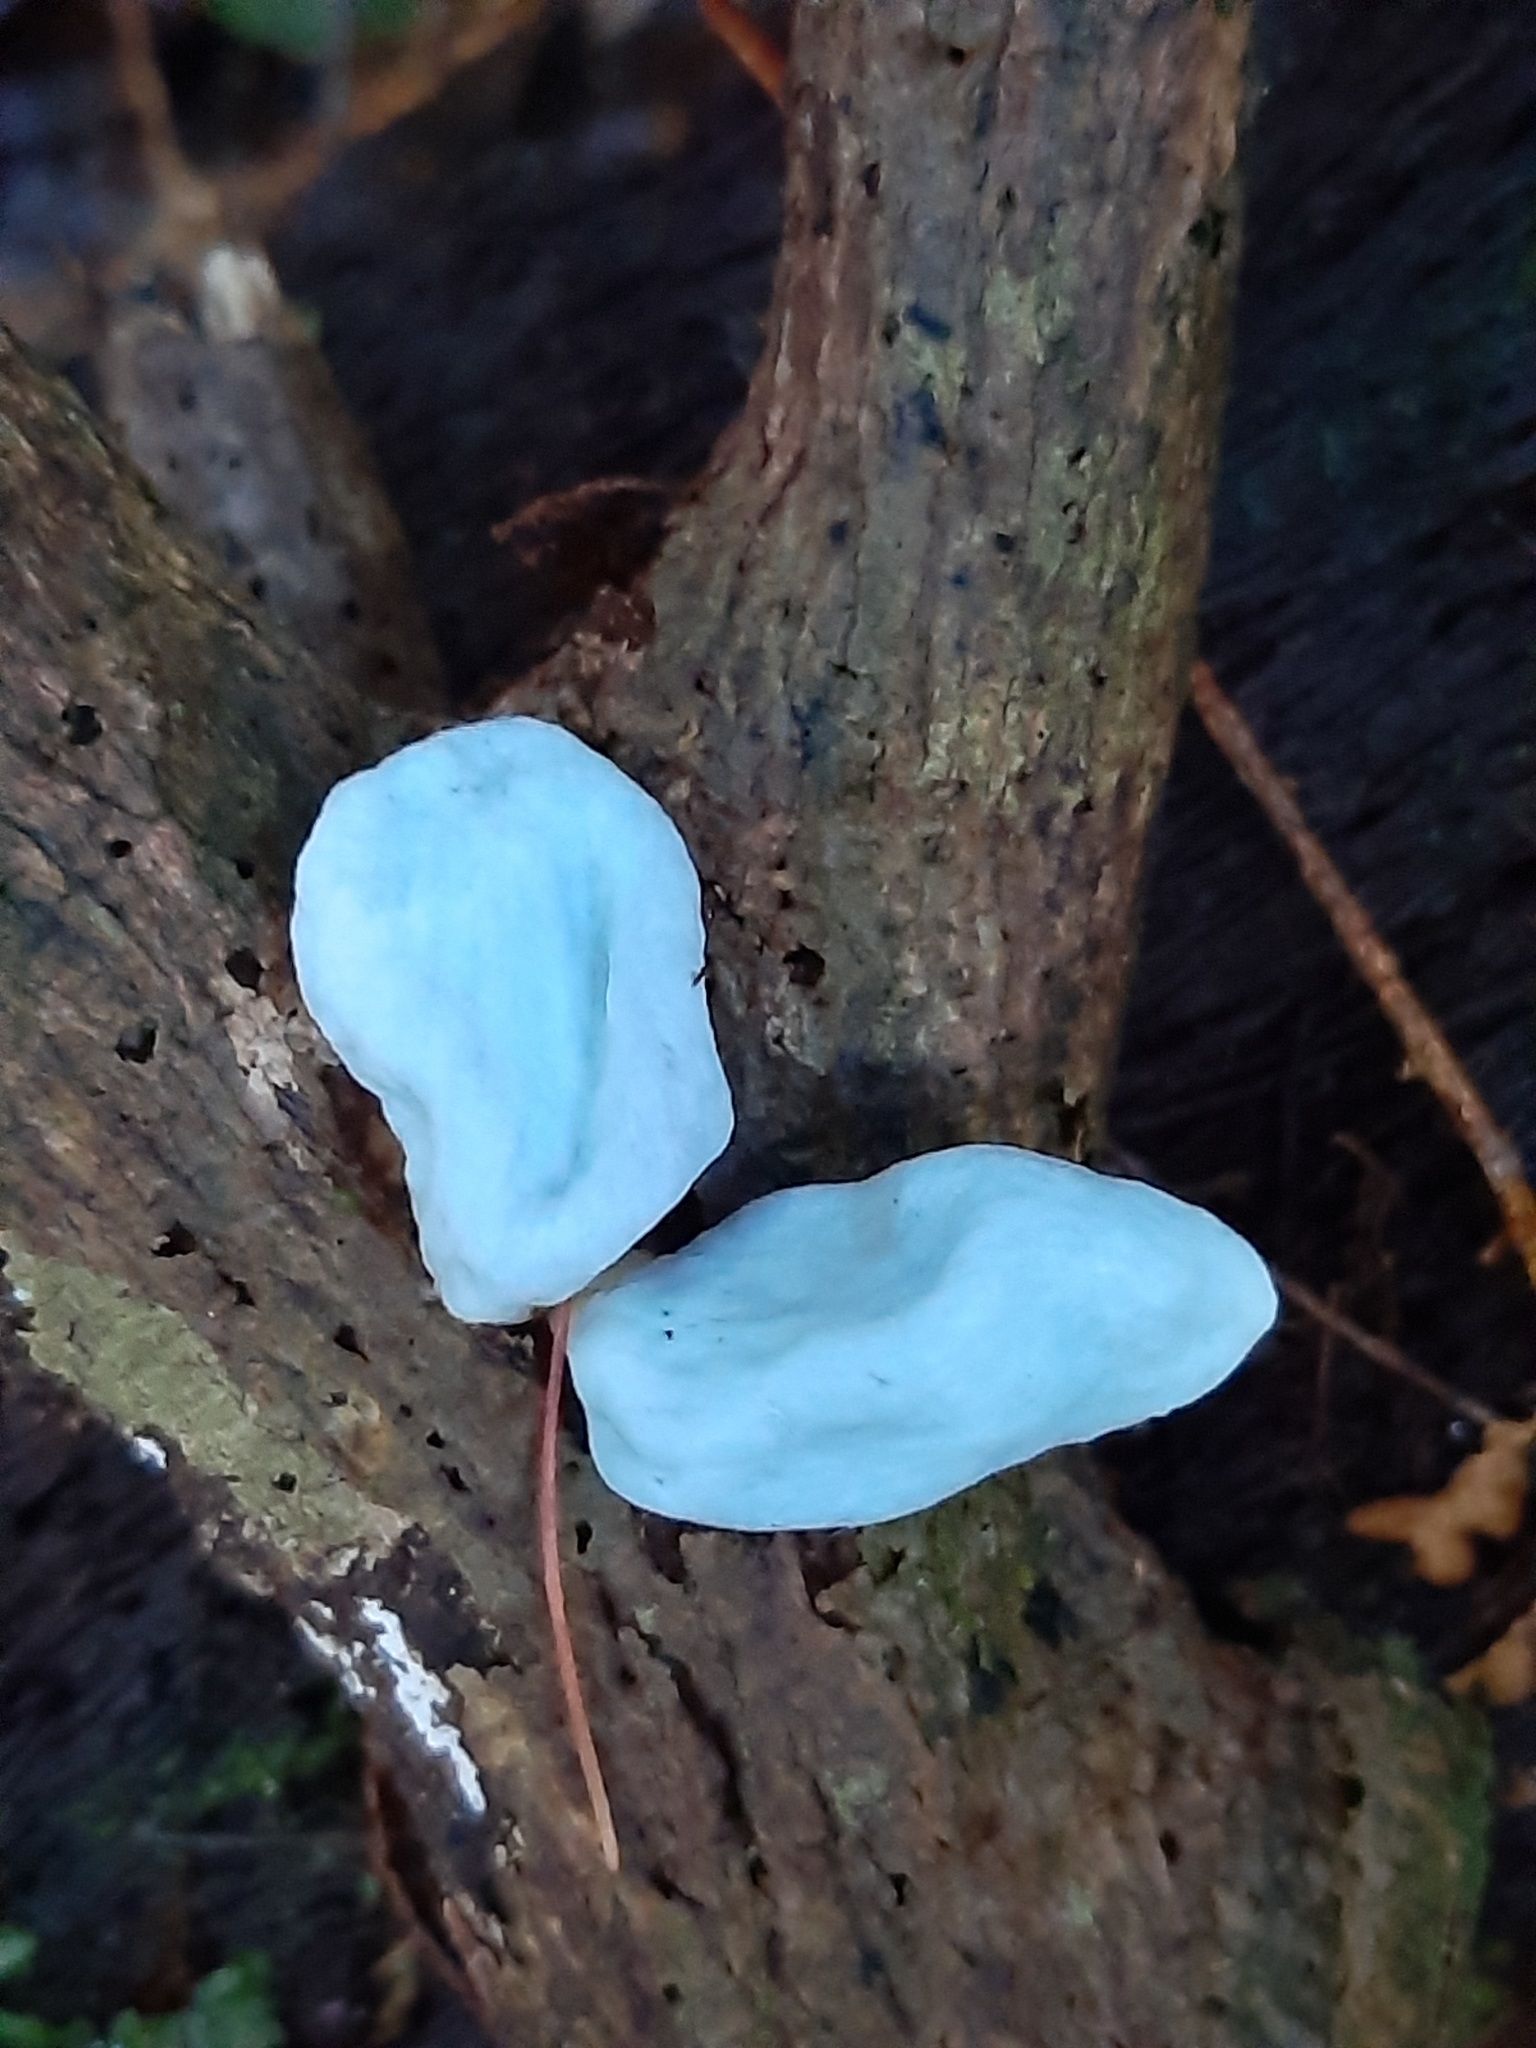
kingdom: Fungi
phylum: Basidiomycota
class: Agaricomycetes
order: Agaricales
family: Agaricaceae
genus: Clavogaster
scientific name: Clavogaster virescens
